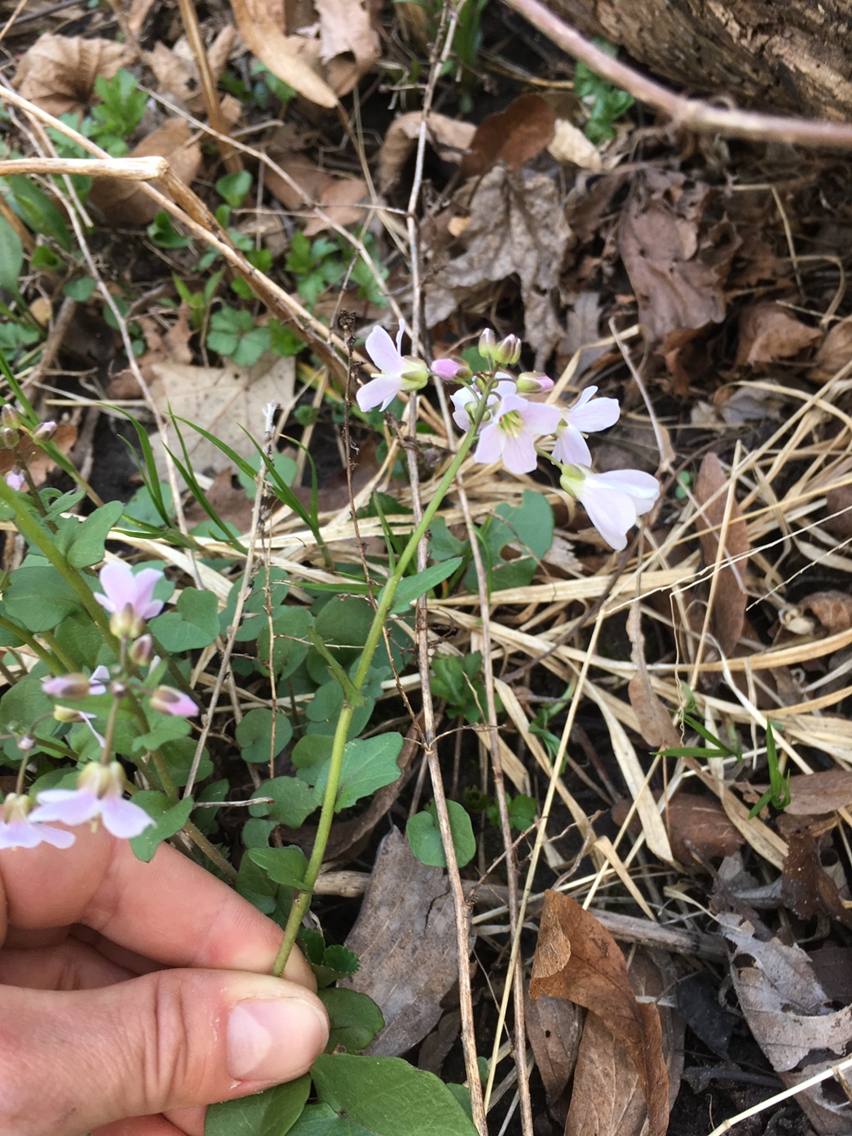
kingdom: Plantae
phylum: Tracheophyta
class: Magnoliopsida
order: Brassicales
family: Brassicaceae
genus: Cardamine
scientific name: Cardamine douglassii
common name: Purple cress
